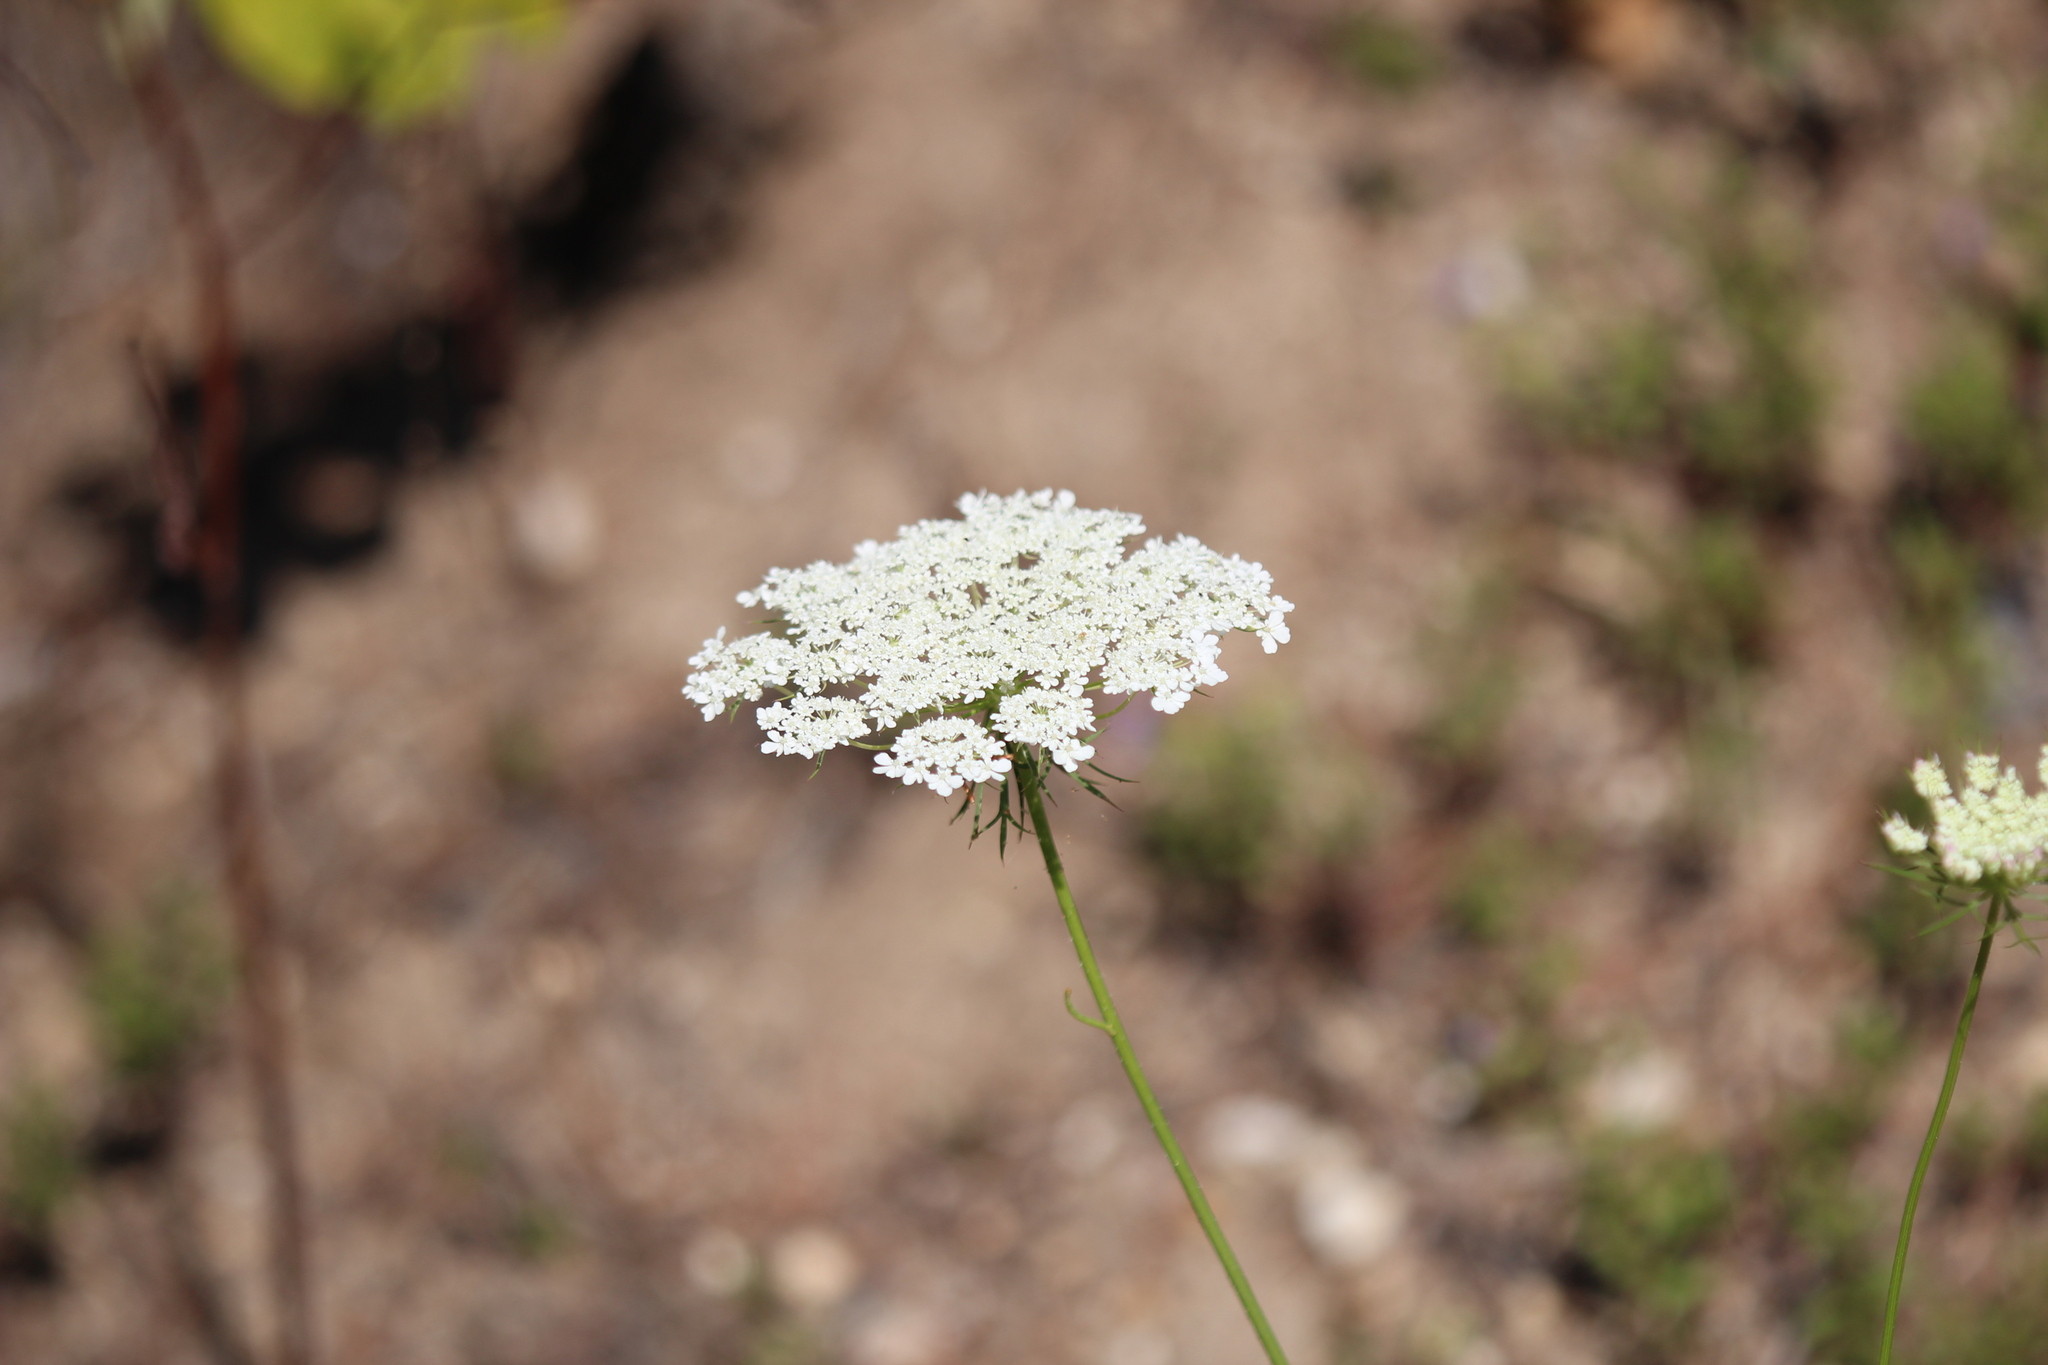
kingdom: Plantae
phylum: Tracheophyta
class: Magnoliopsida
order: Apiales
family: Apiaceae
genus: Daucus
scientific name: Daucus carota
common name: Wild carrot
